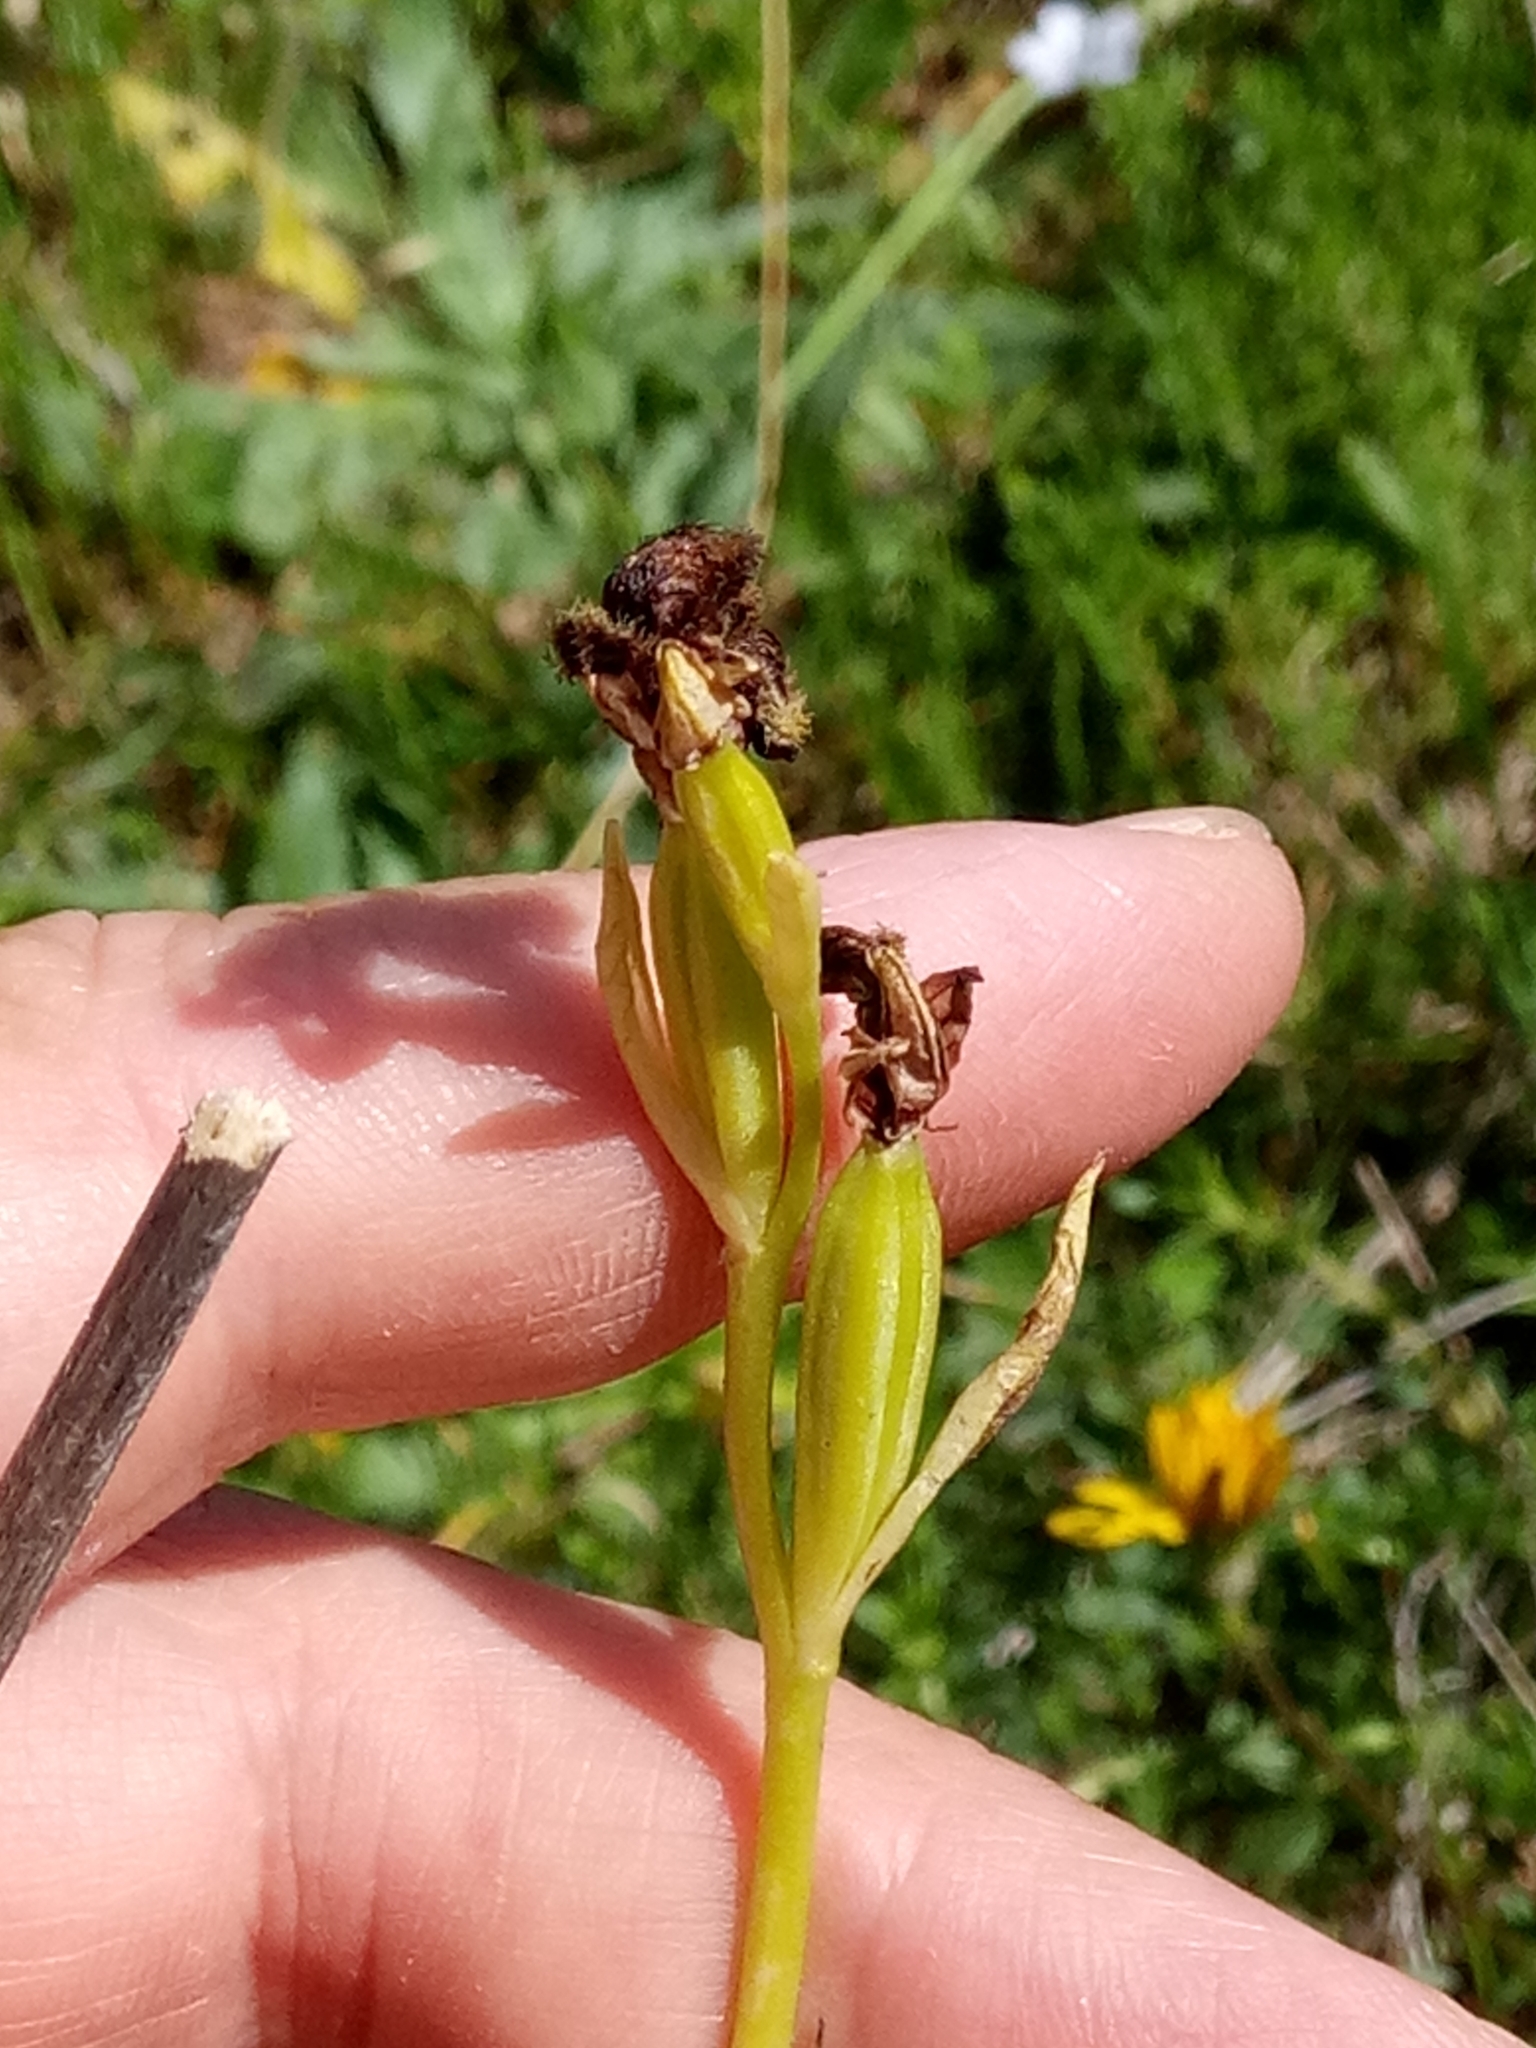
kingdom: Plantae
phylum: Tracheophyta
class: Liliopsida
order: Asparagales
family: Orchidaceae
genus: Ophrys
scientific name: Ophrys fusca
